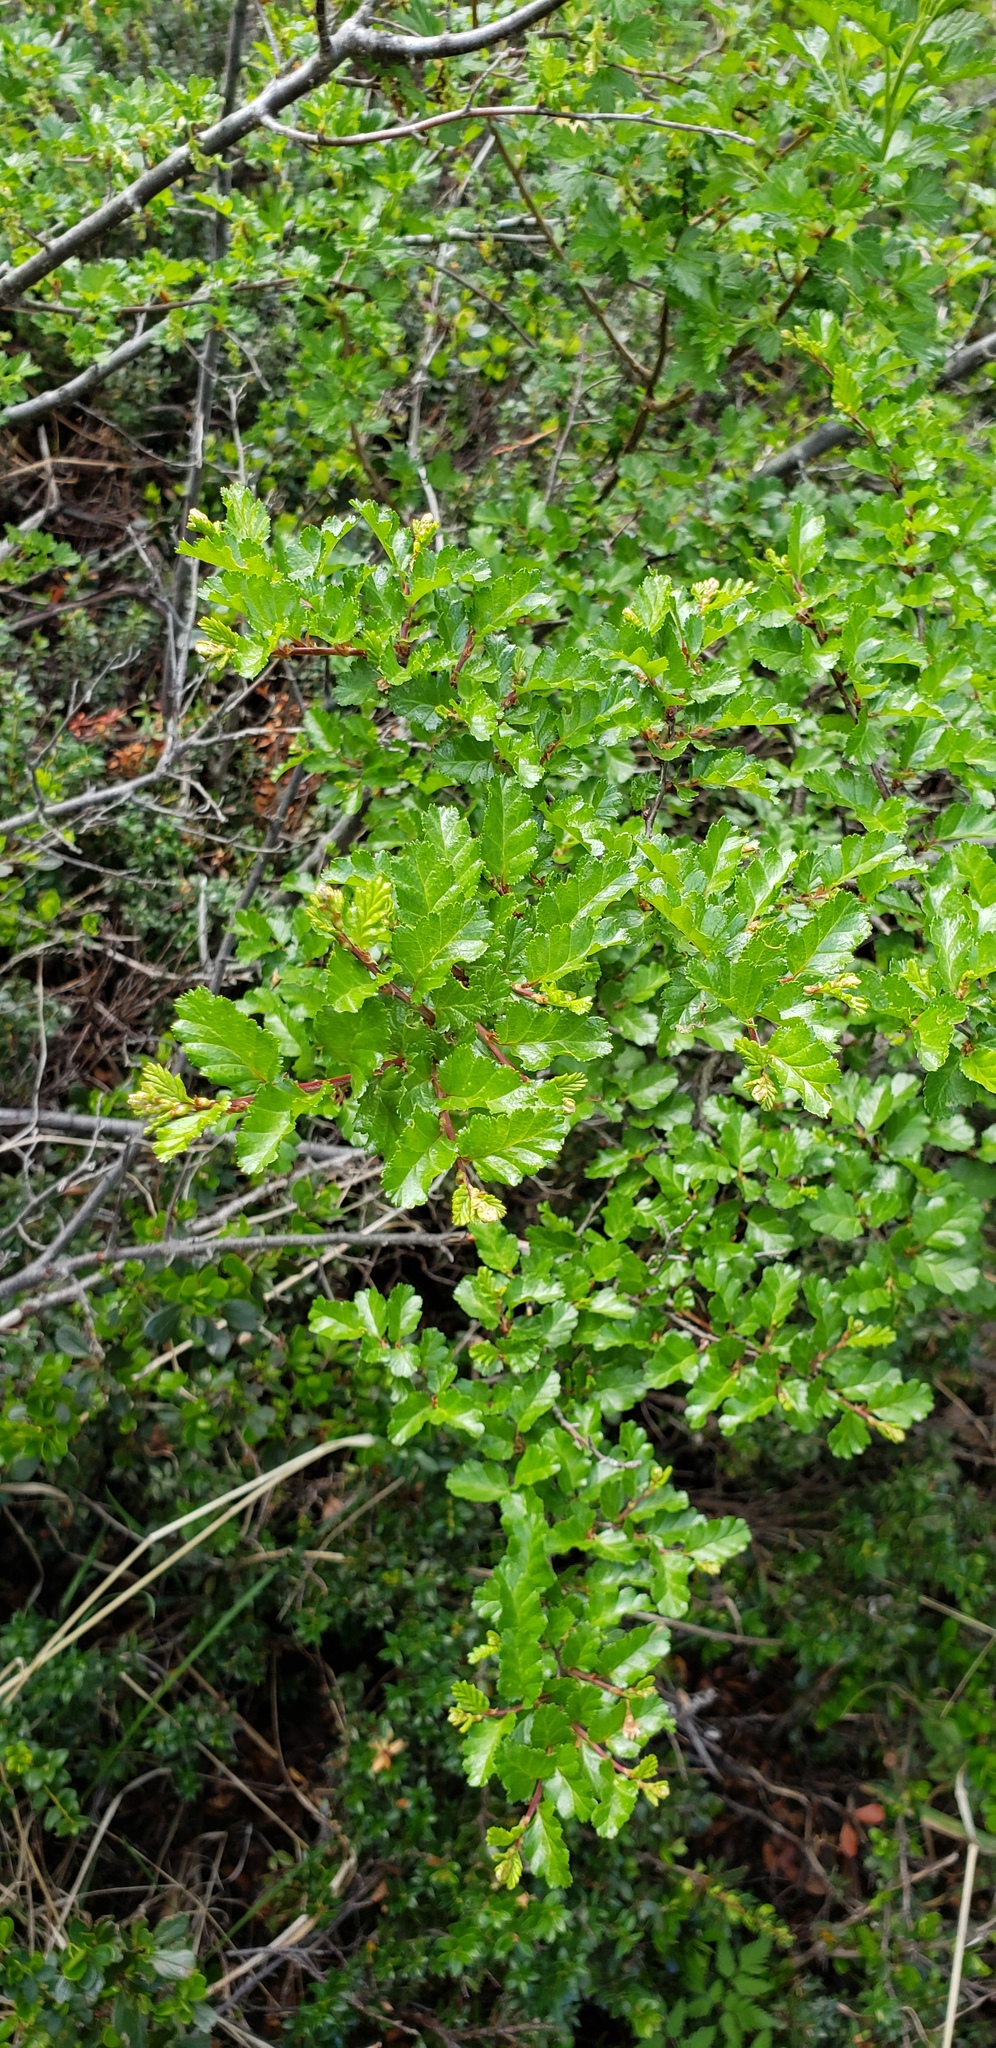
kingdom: Plantae
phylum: Tracheophyta
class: Magnoliopsida
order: Fagales
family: Nothofagaceae
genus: Nothofagus
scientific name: Nothofagus antarctica
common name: Antarctic beech
